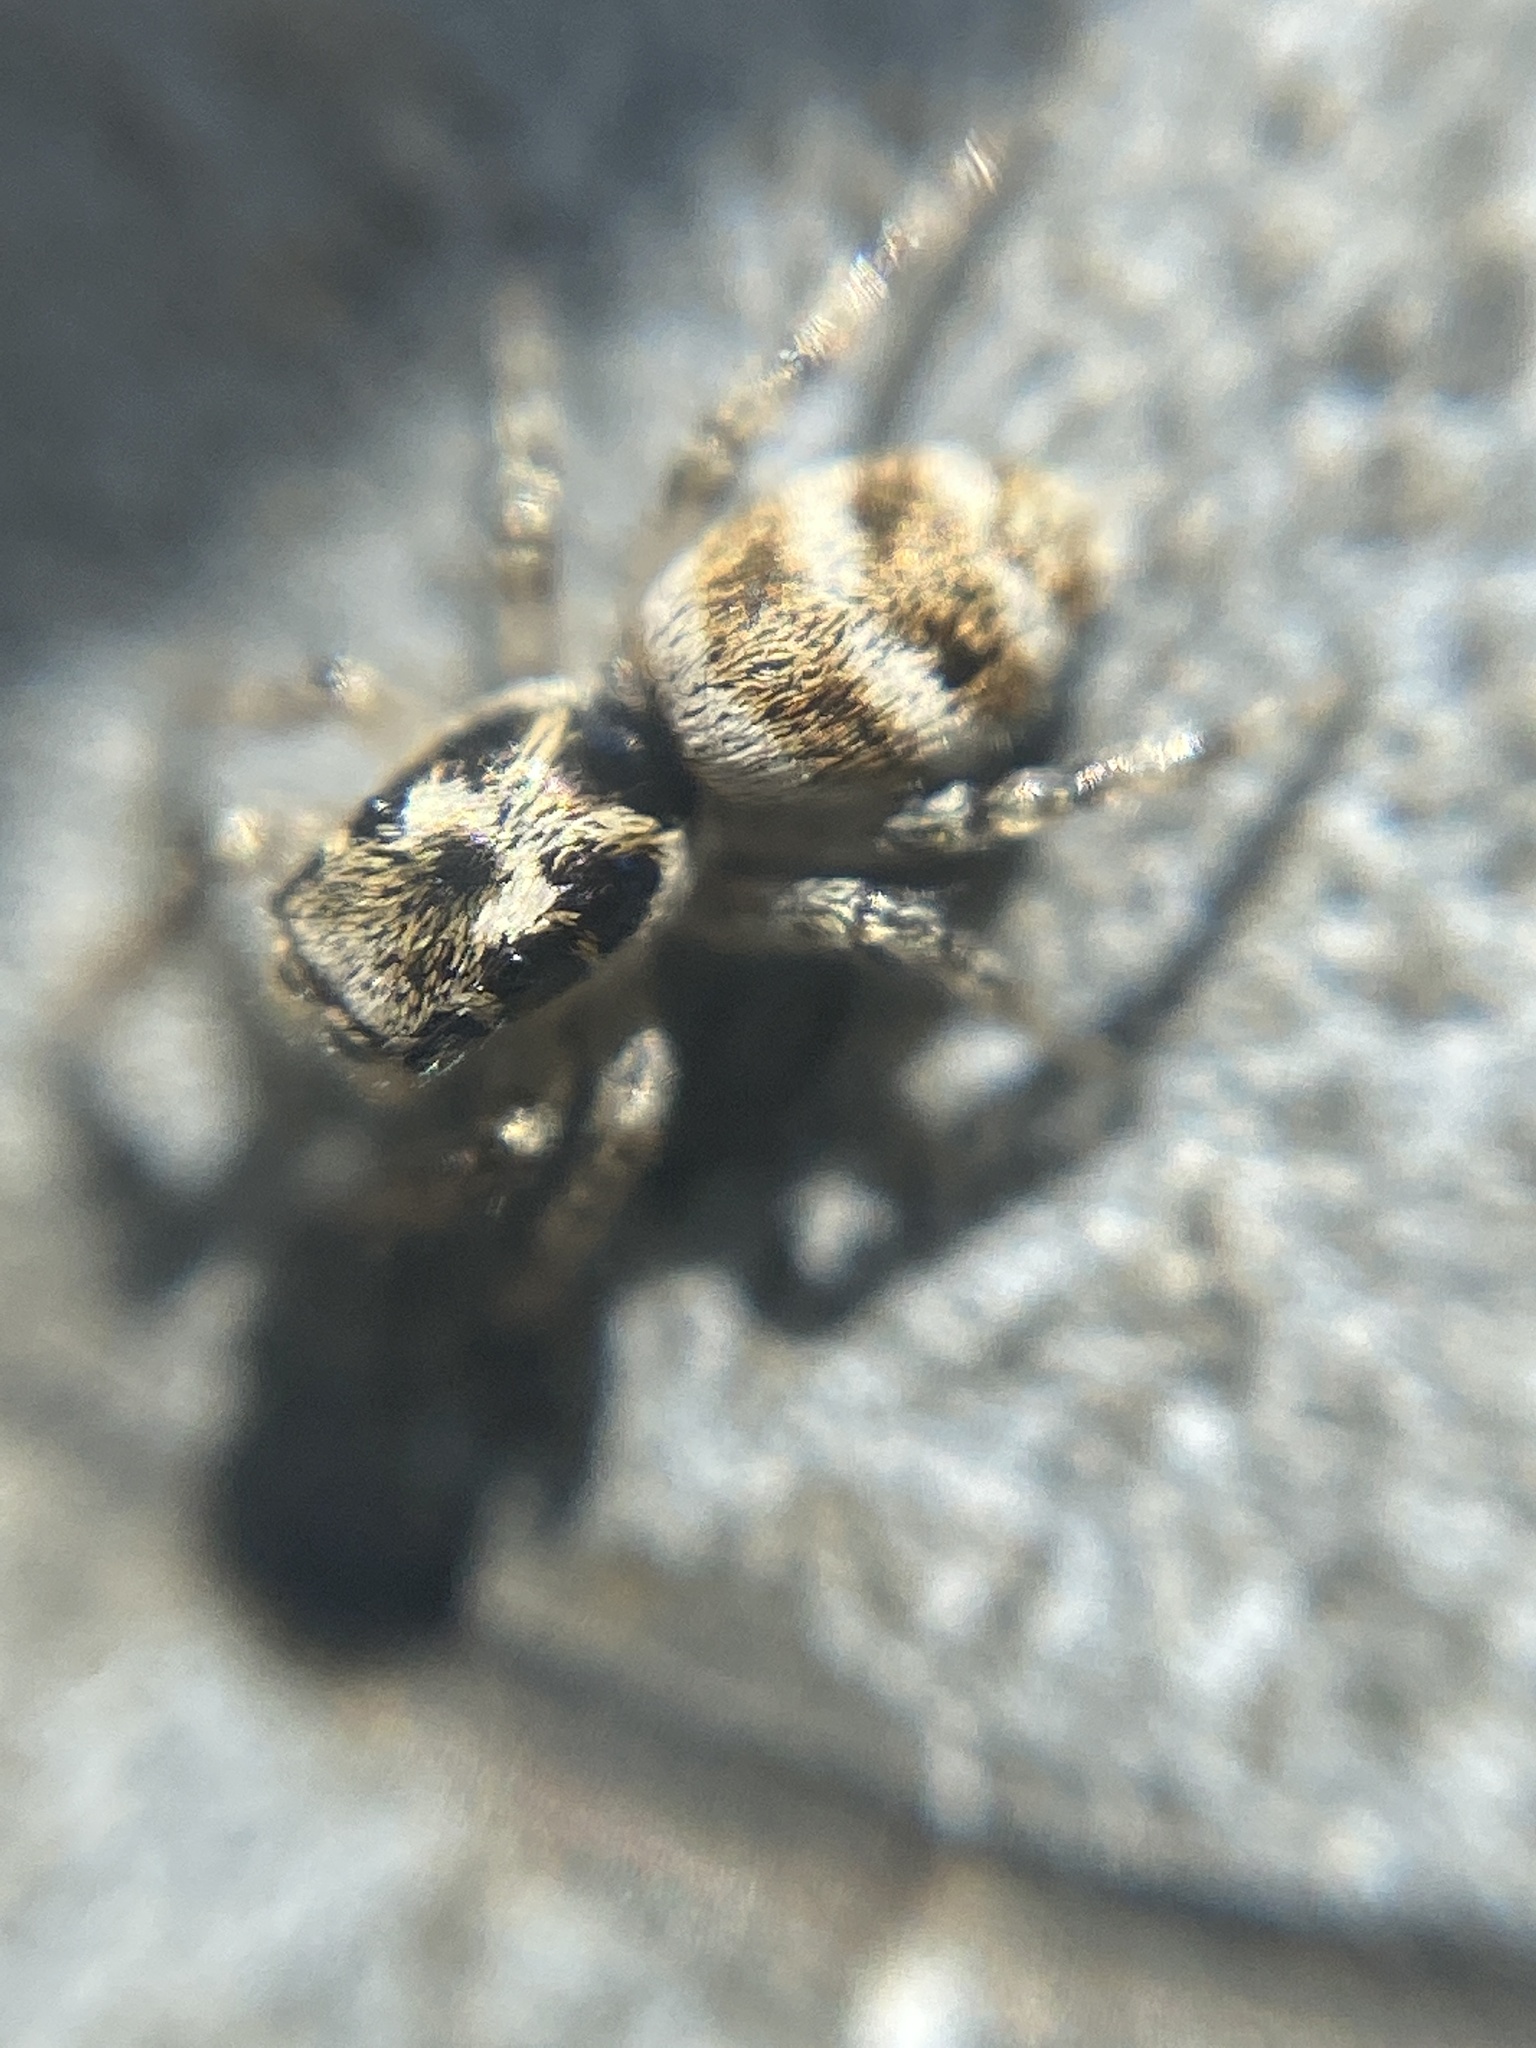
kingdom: Animalia
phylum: Arthropoda
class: Arachnida
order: Araneae
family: Salticidae
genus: Salticus
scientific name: Salticus scenicus
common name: Zebra jumper
